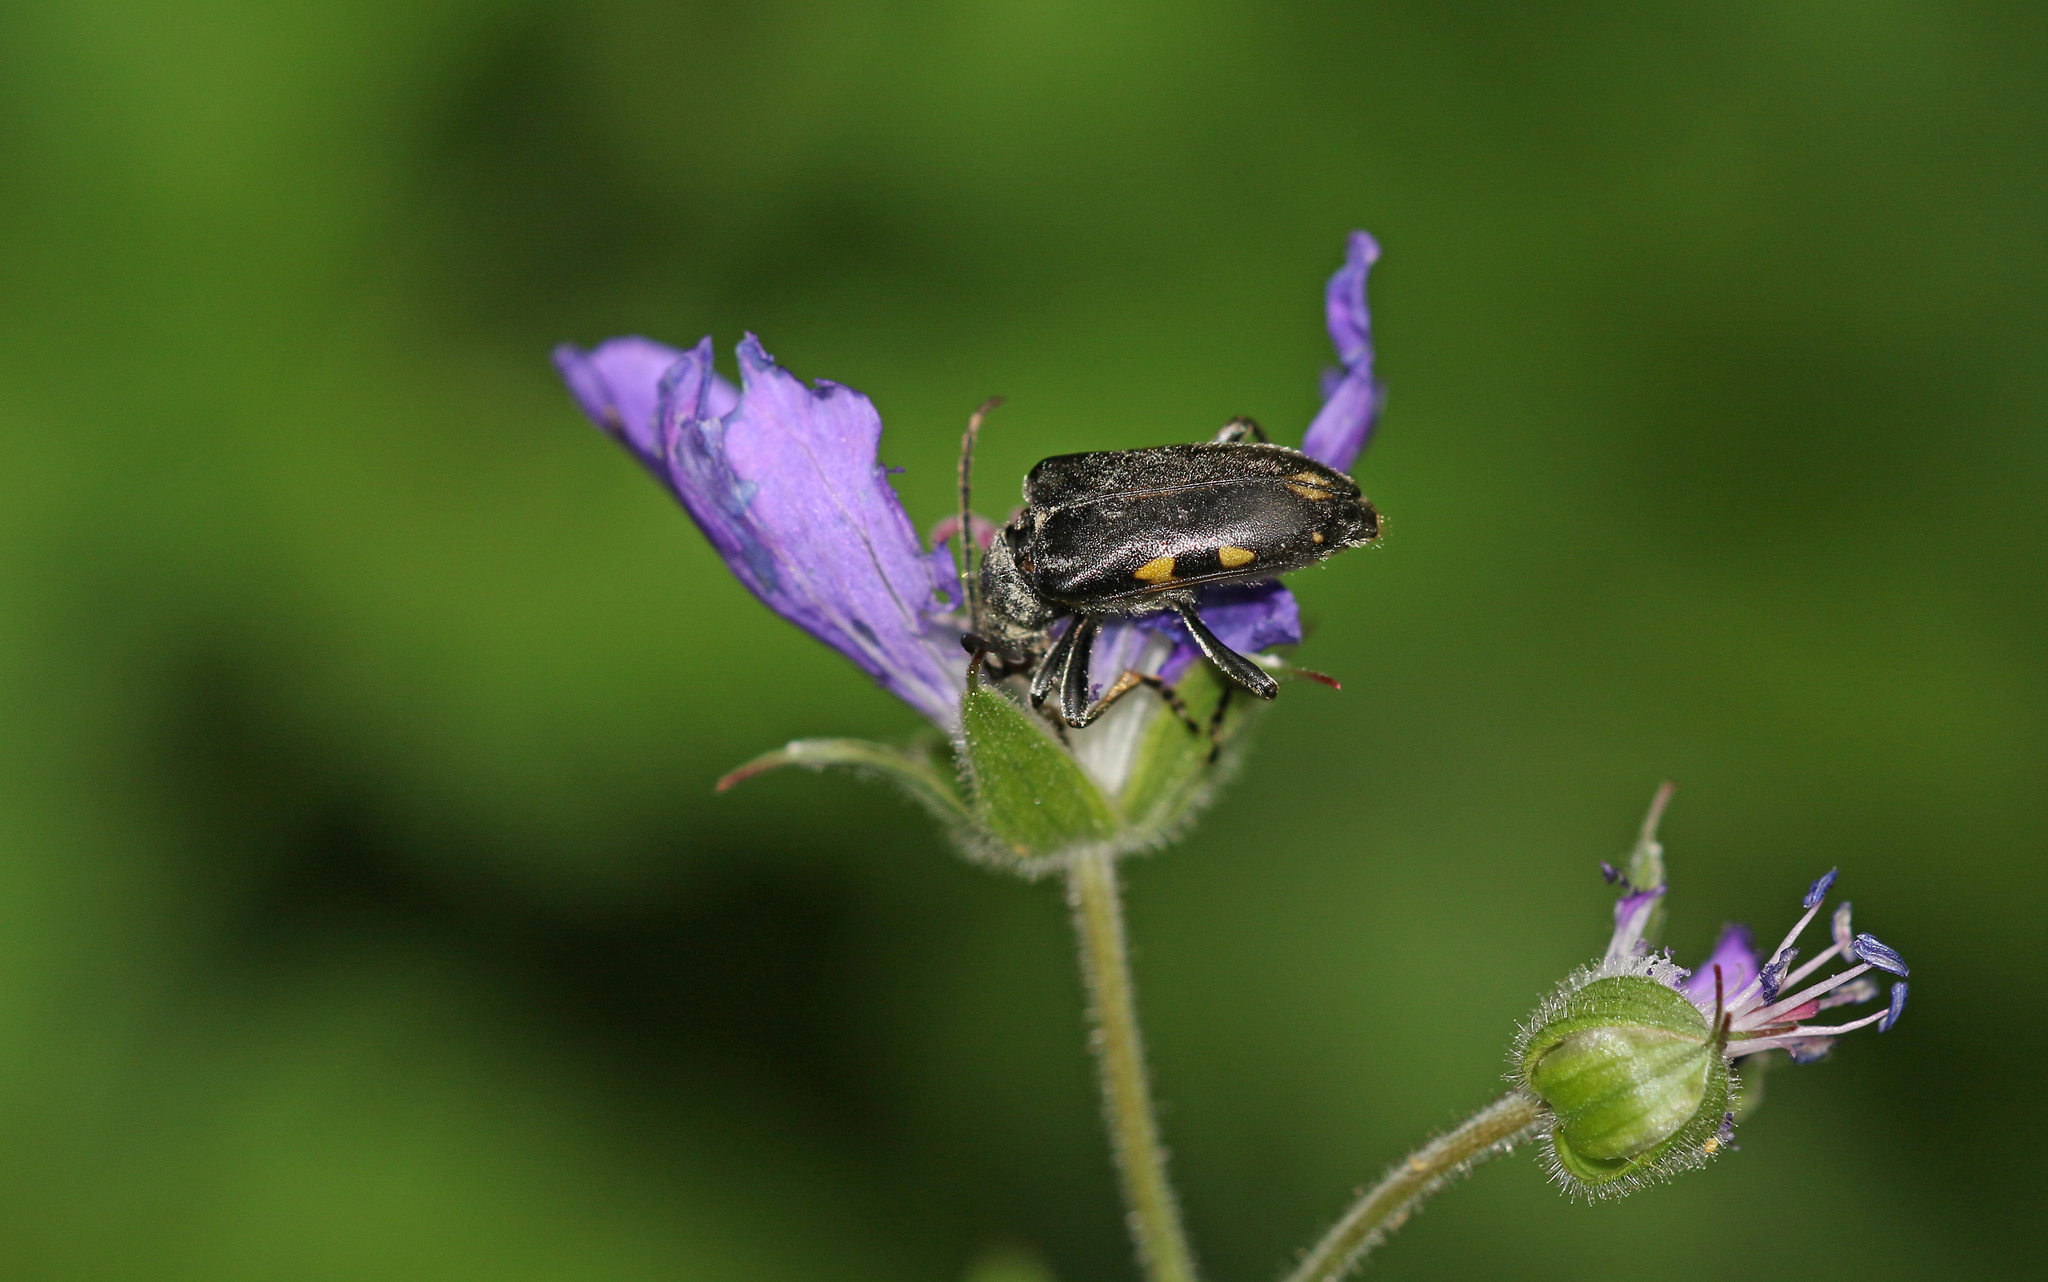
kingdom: Animalia
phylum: Arthropoda
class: Insecta
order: Coleoptera
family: Cerambycidae
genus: Brachyta
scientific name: Brachyta interrogationis
